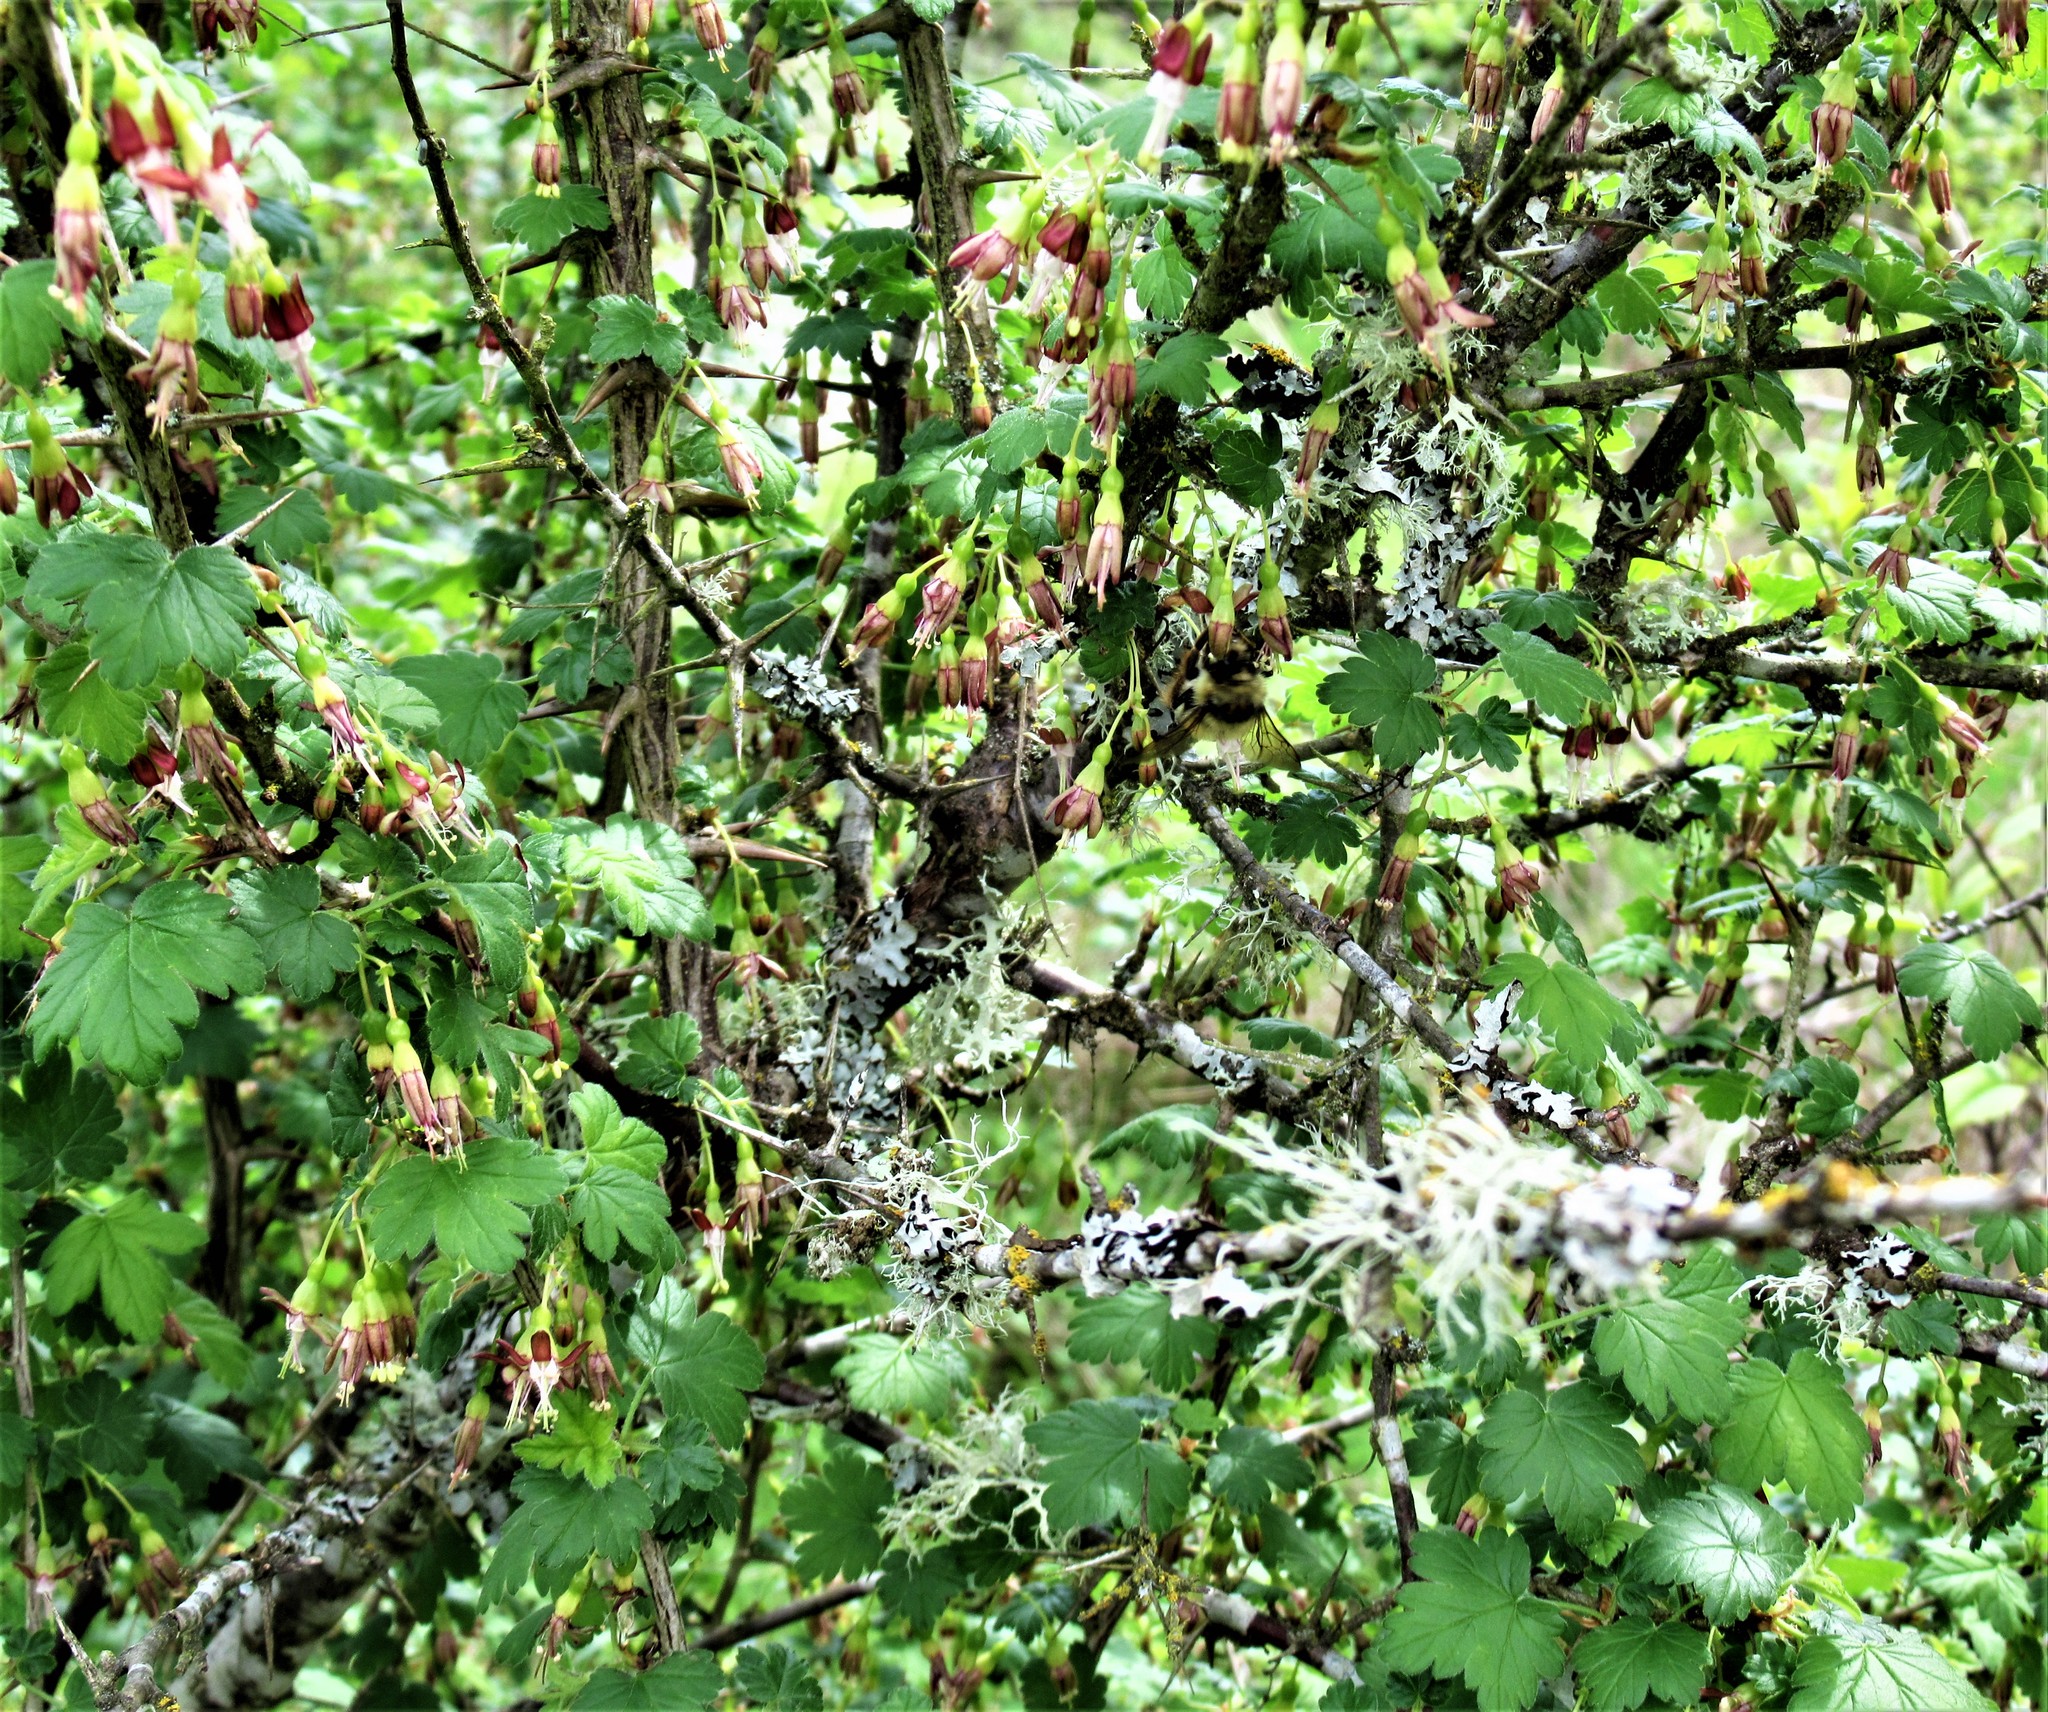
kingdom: Plantae
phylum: Tracheophyta
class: Magnoliopsida
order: Saxifragales
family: Grossulariaceae
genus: Ribes
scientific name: Ribes divaricatum
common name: Wild black gooseberry
